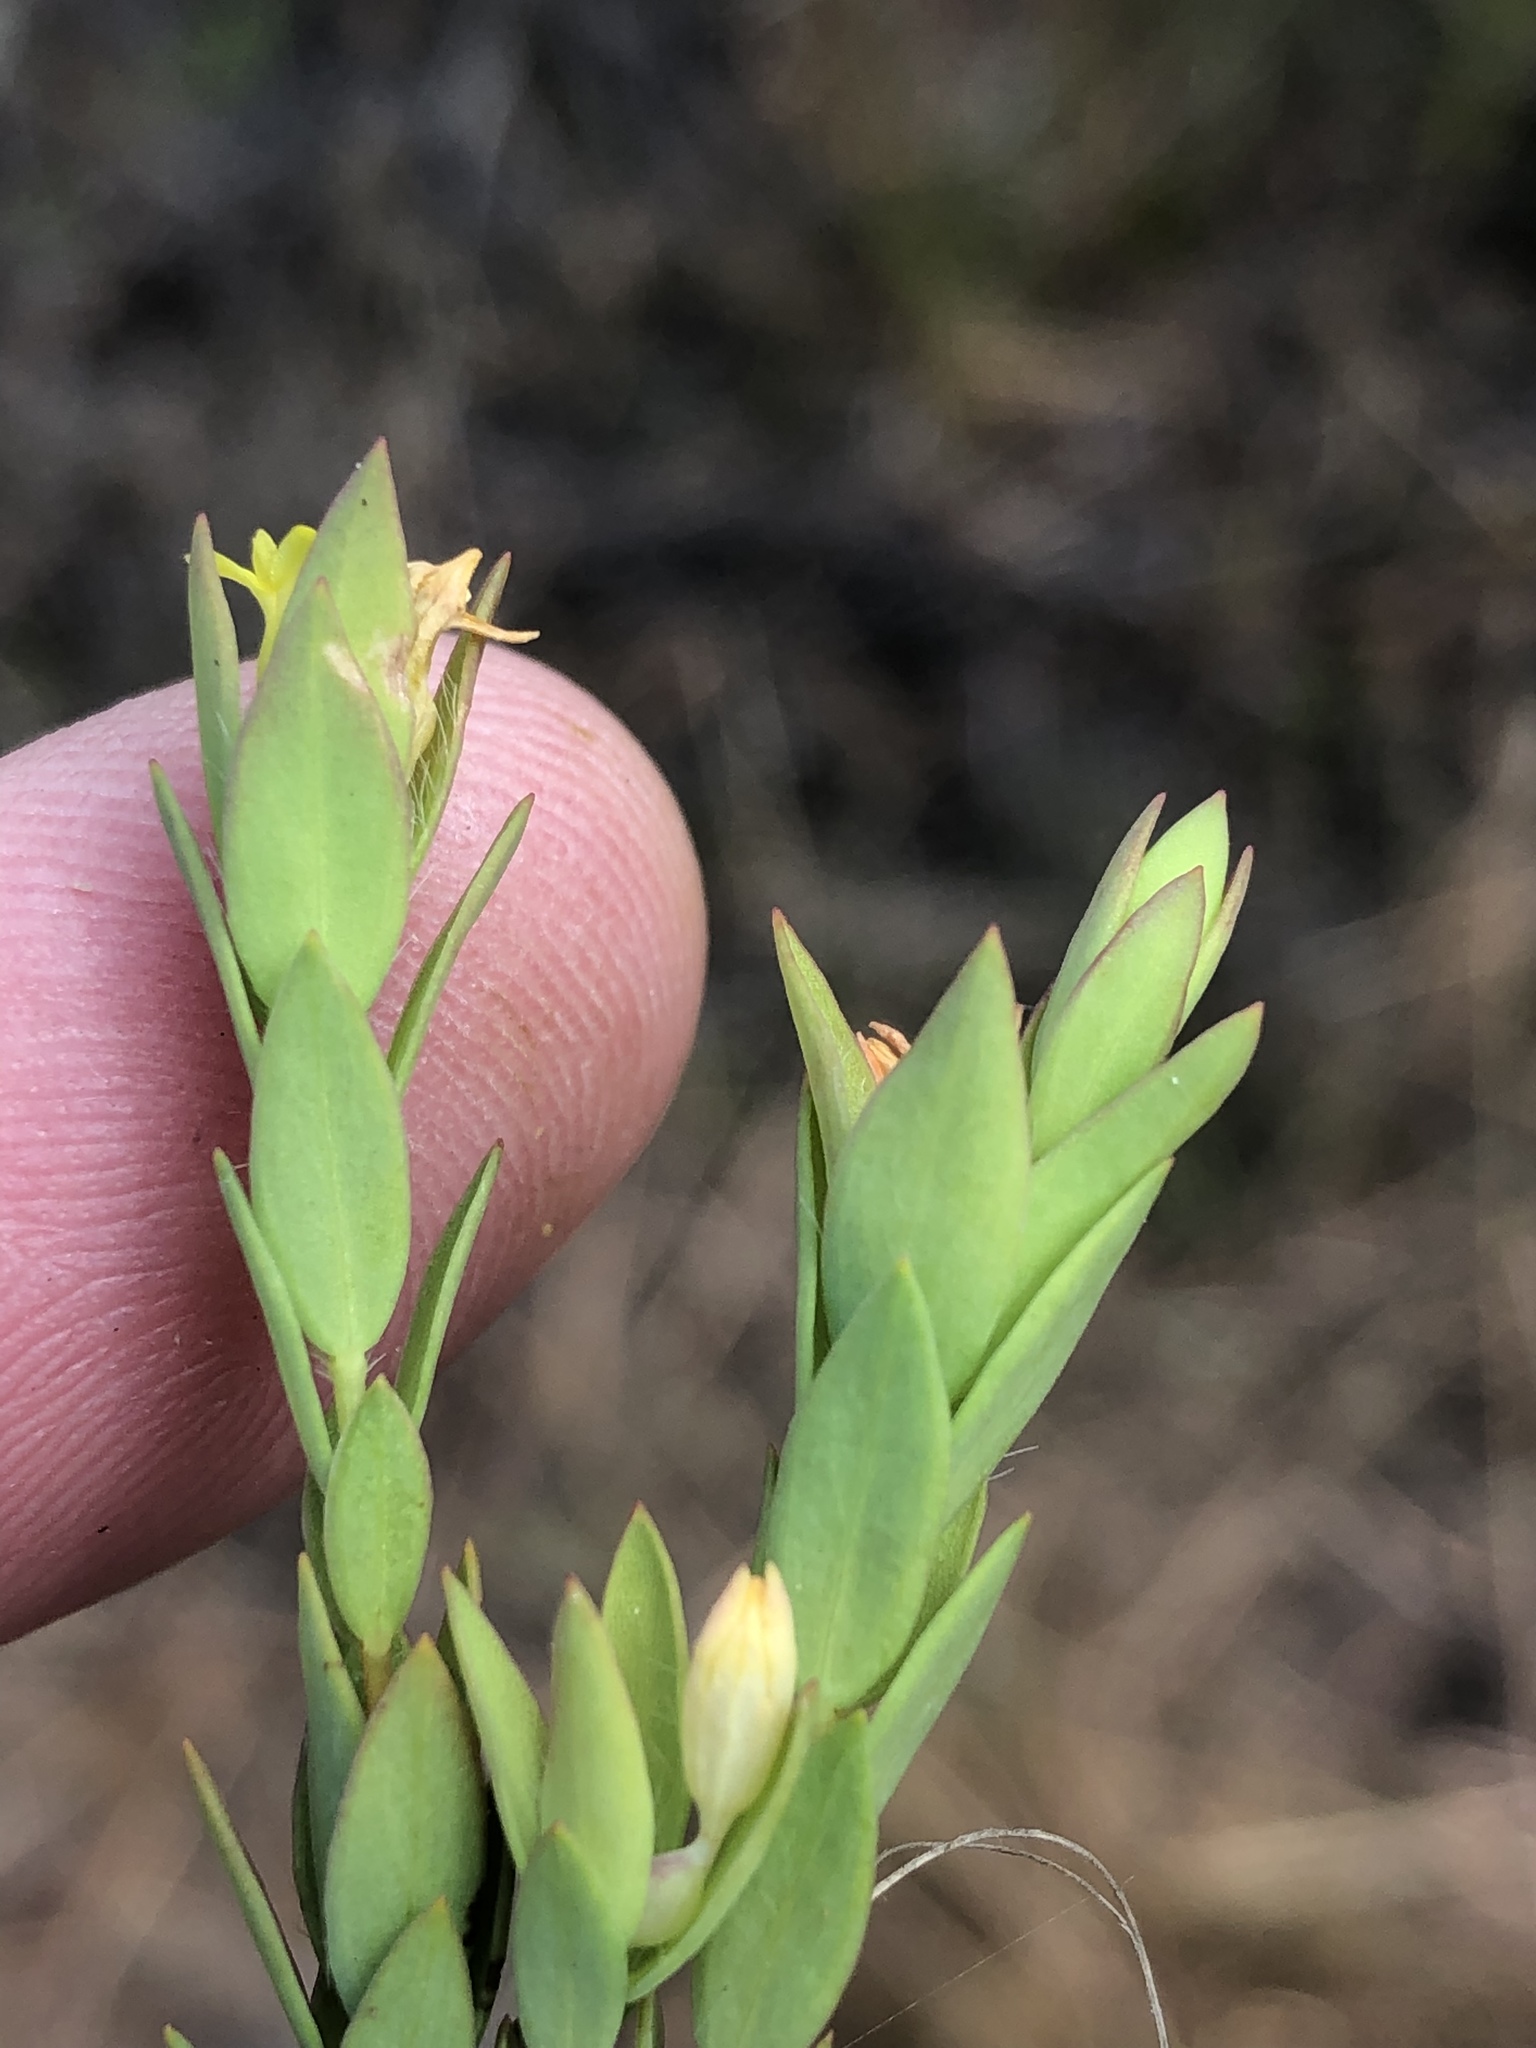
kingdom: Plantae
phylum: Tracheophyta
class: Magnoliopsida
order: Malvales
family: Thymelaeaceae
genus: Gnidia
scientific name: Gnidia juniperifolia
